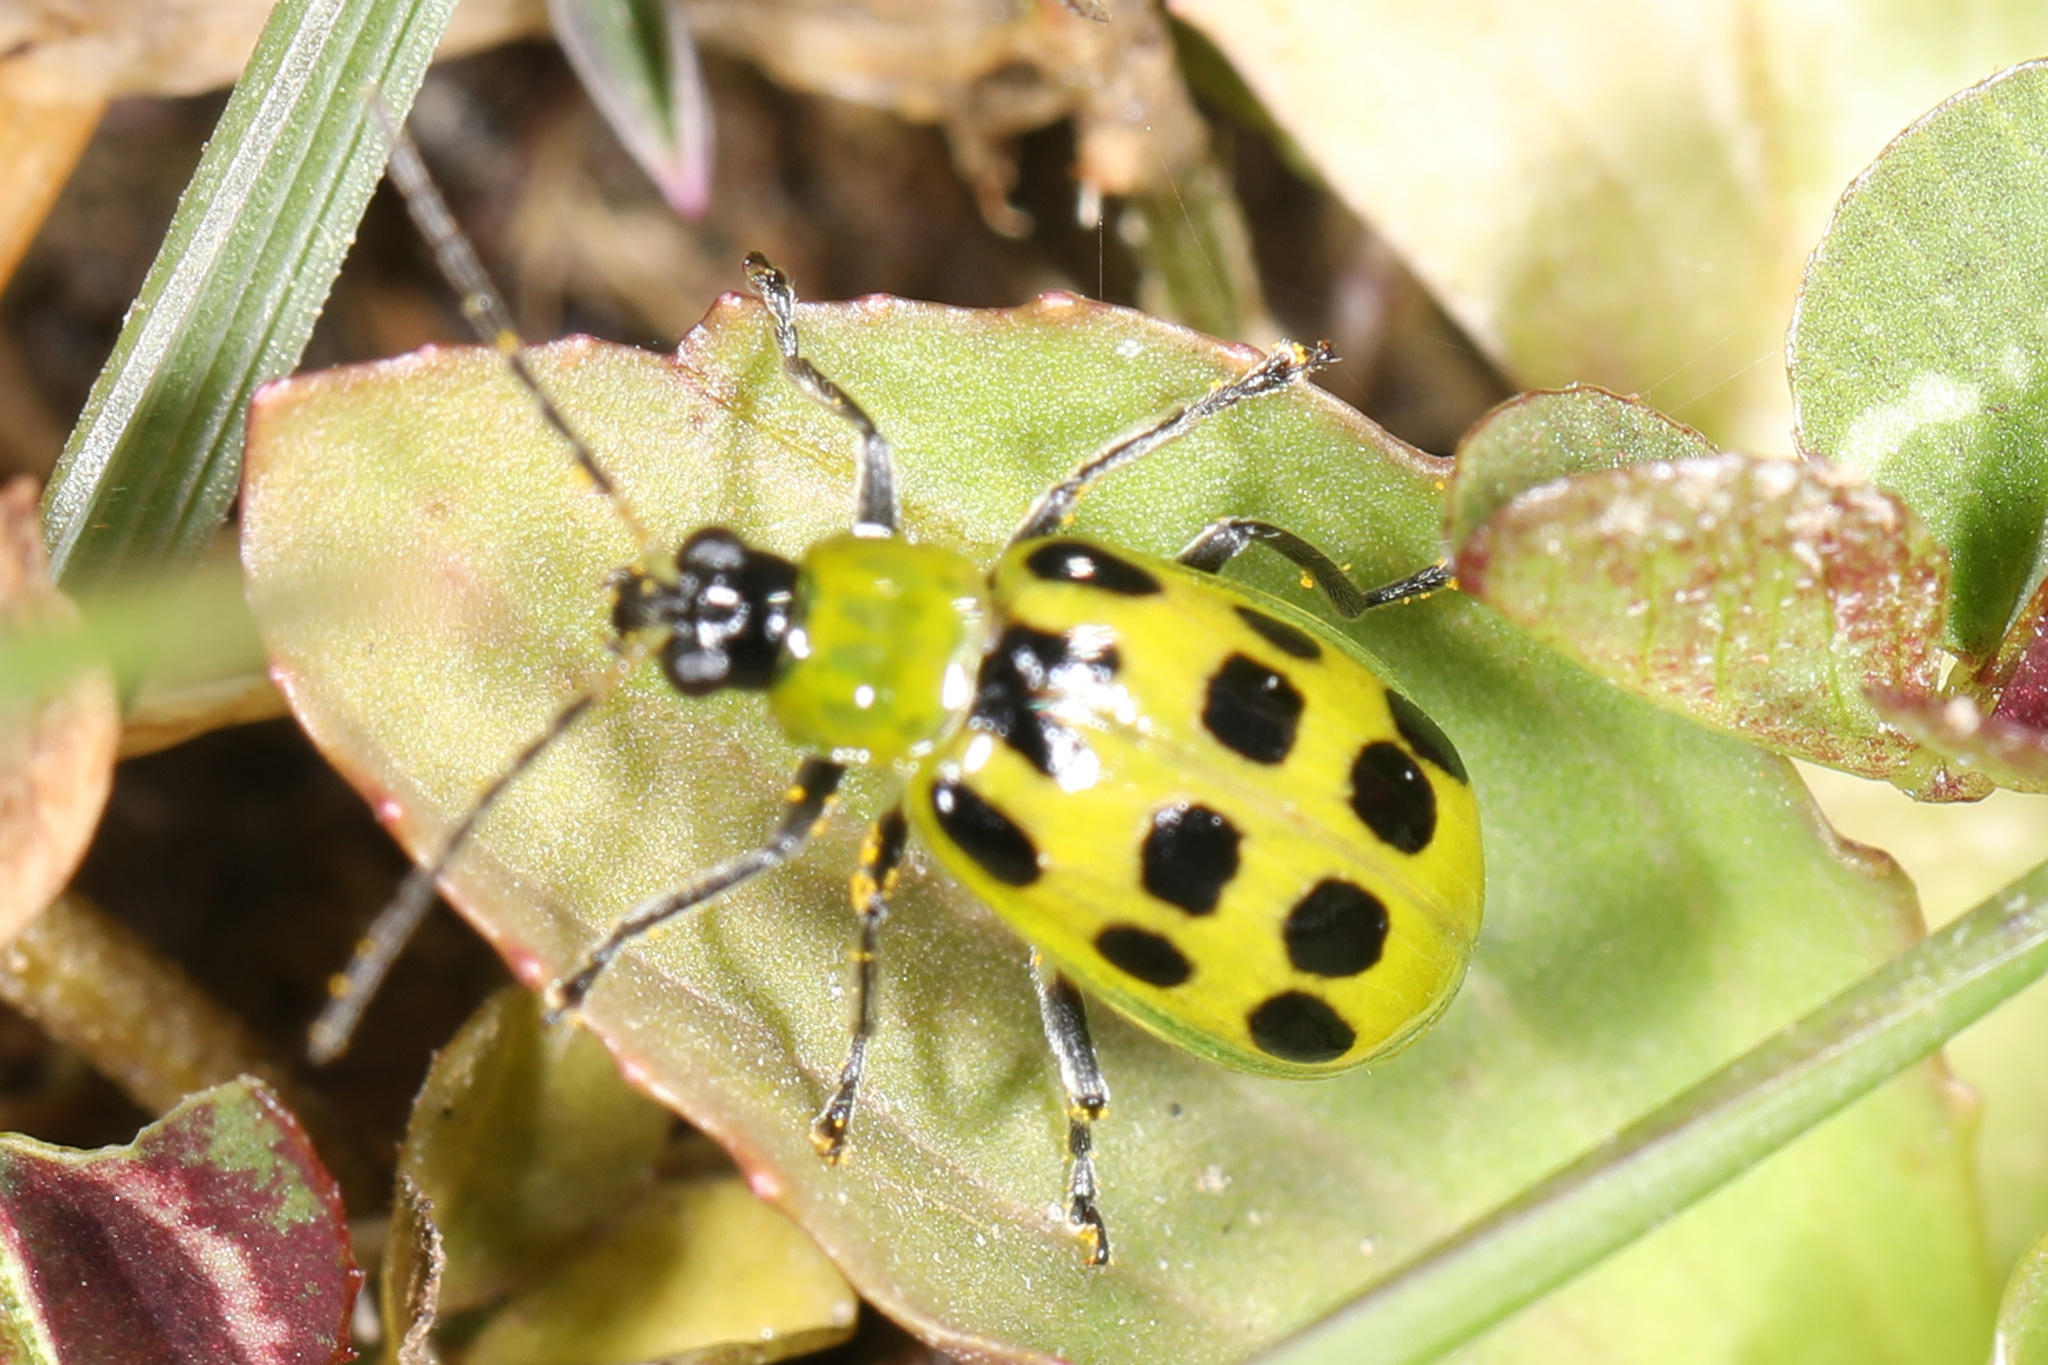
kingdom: Animalia
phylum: Arthropoda
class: Insecta
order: Coleoptera
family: Chrysomelidae
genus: Diabrotica
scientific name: Diabrotica undecimpunctata
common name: Spotted cucumber beetle
